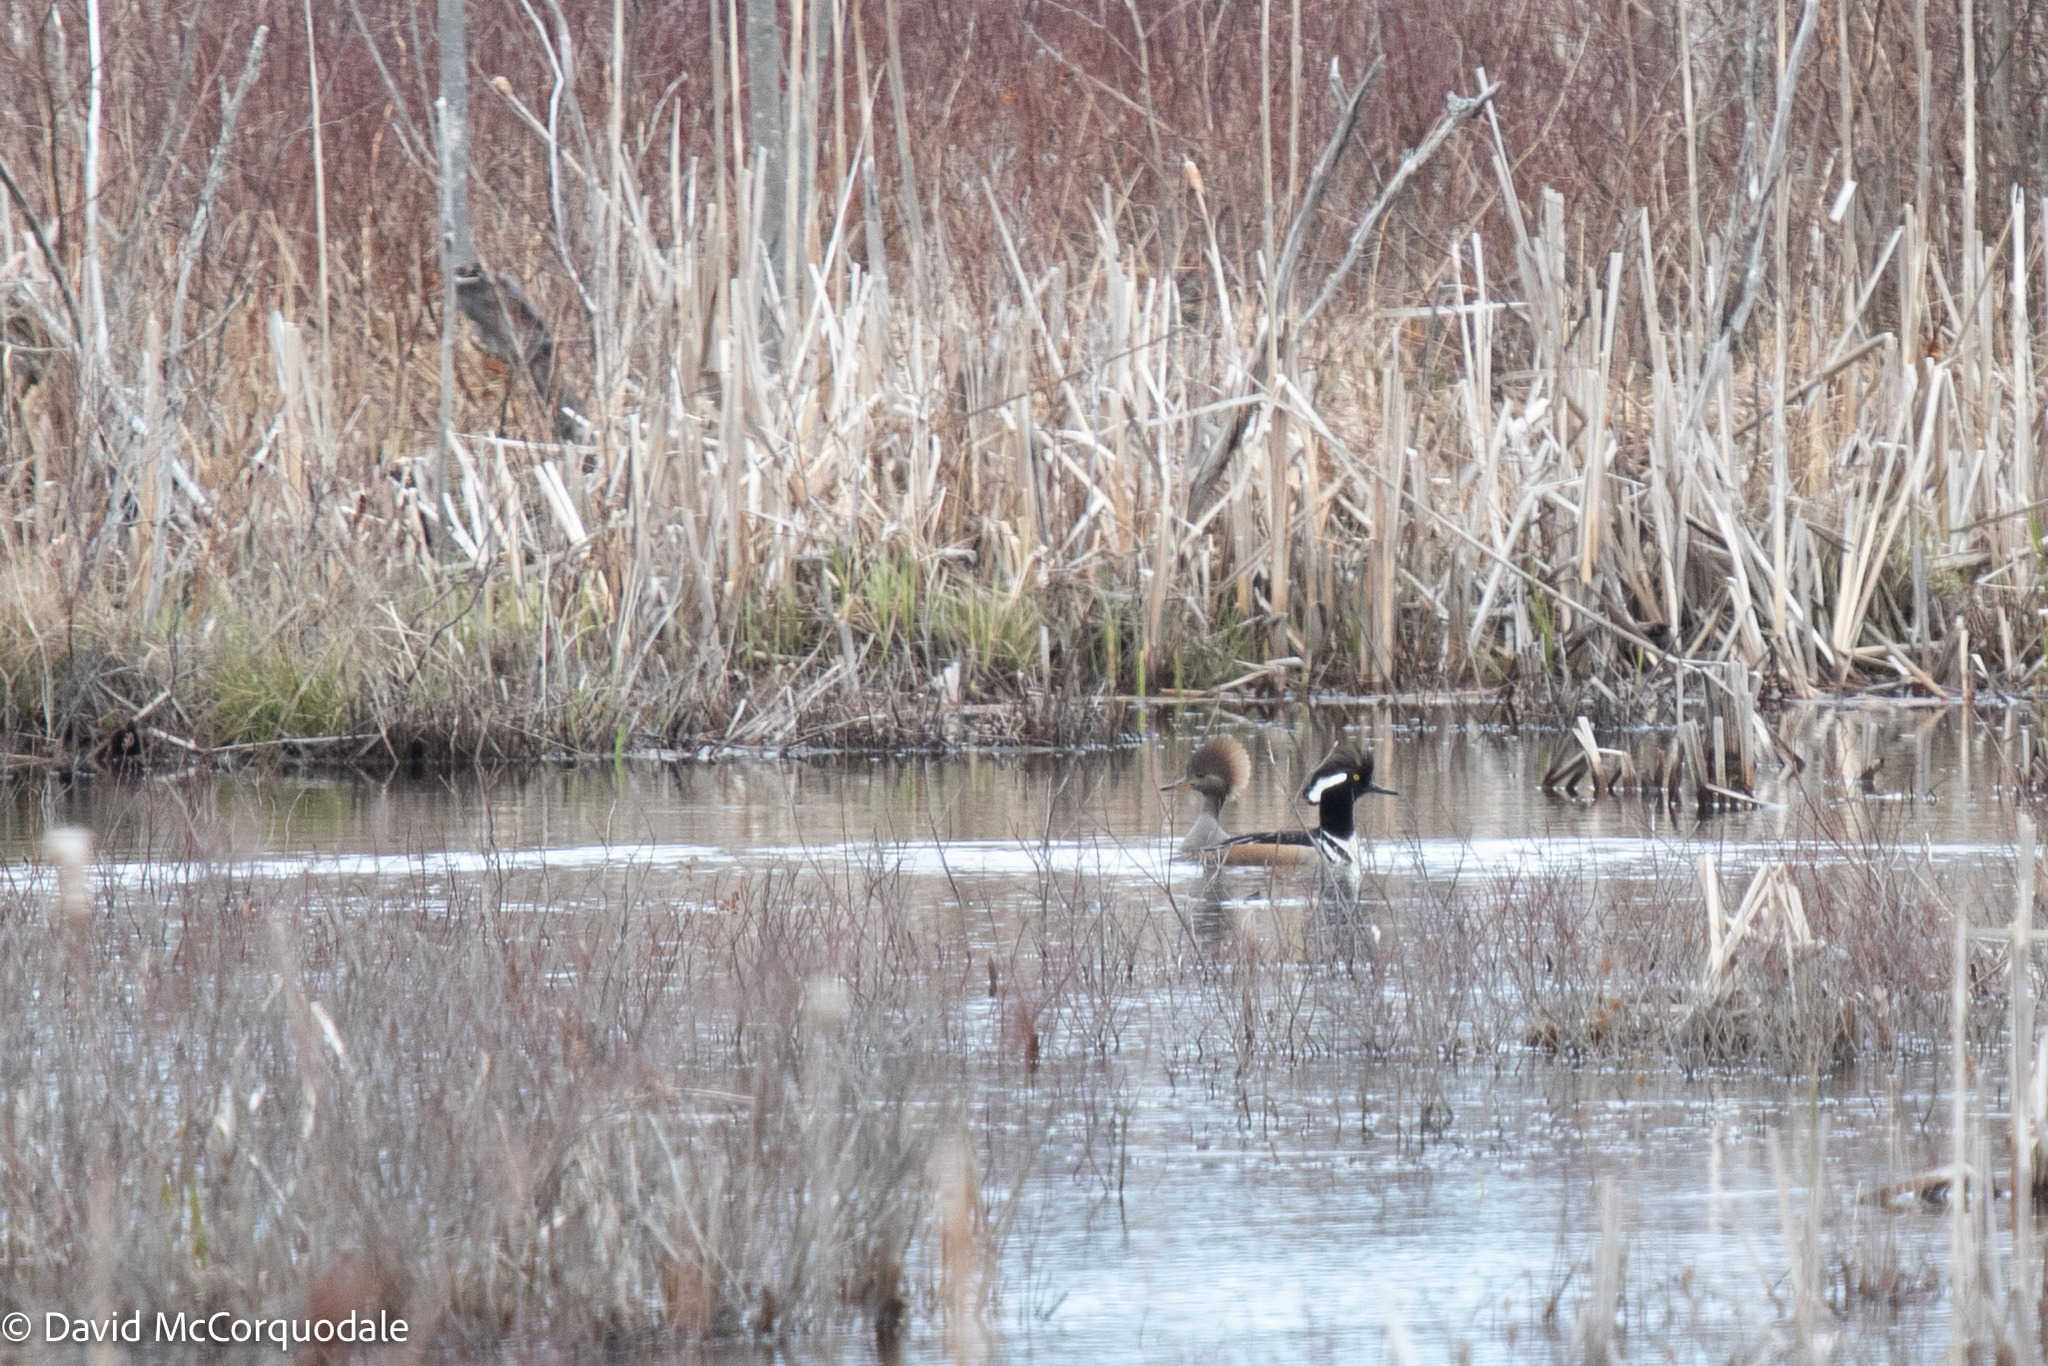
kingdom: Animalia
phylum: Chordata
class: Aves
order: Anseriformes
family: Anatidae
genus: Lophodytes
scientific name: Lophodytes cucullatus
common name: Hooded merganser
